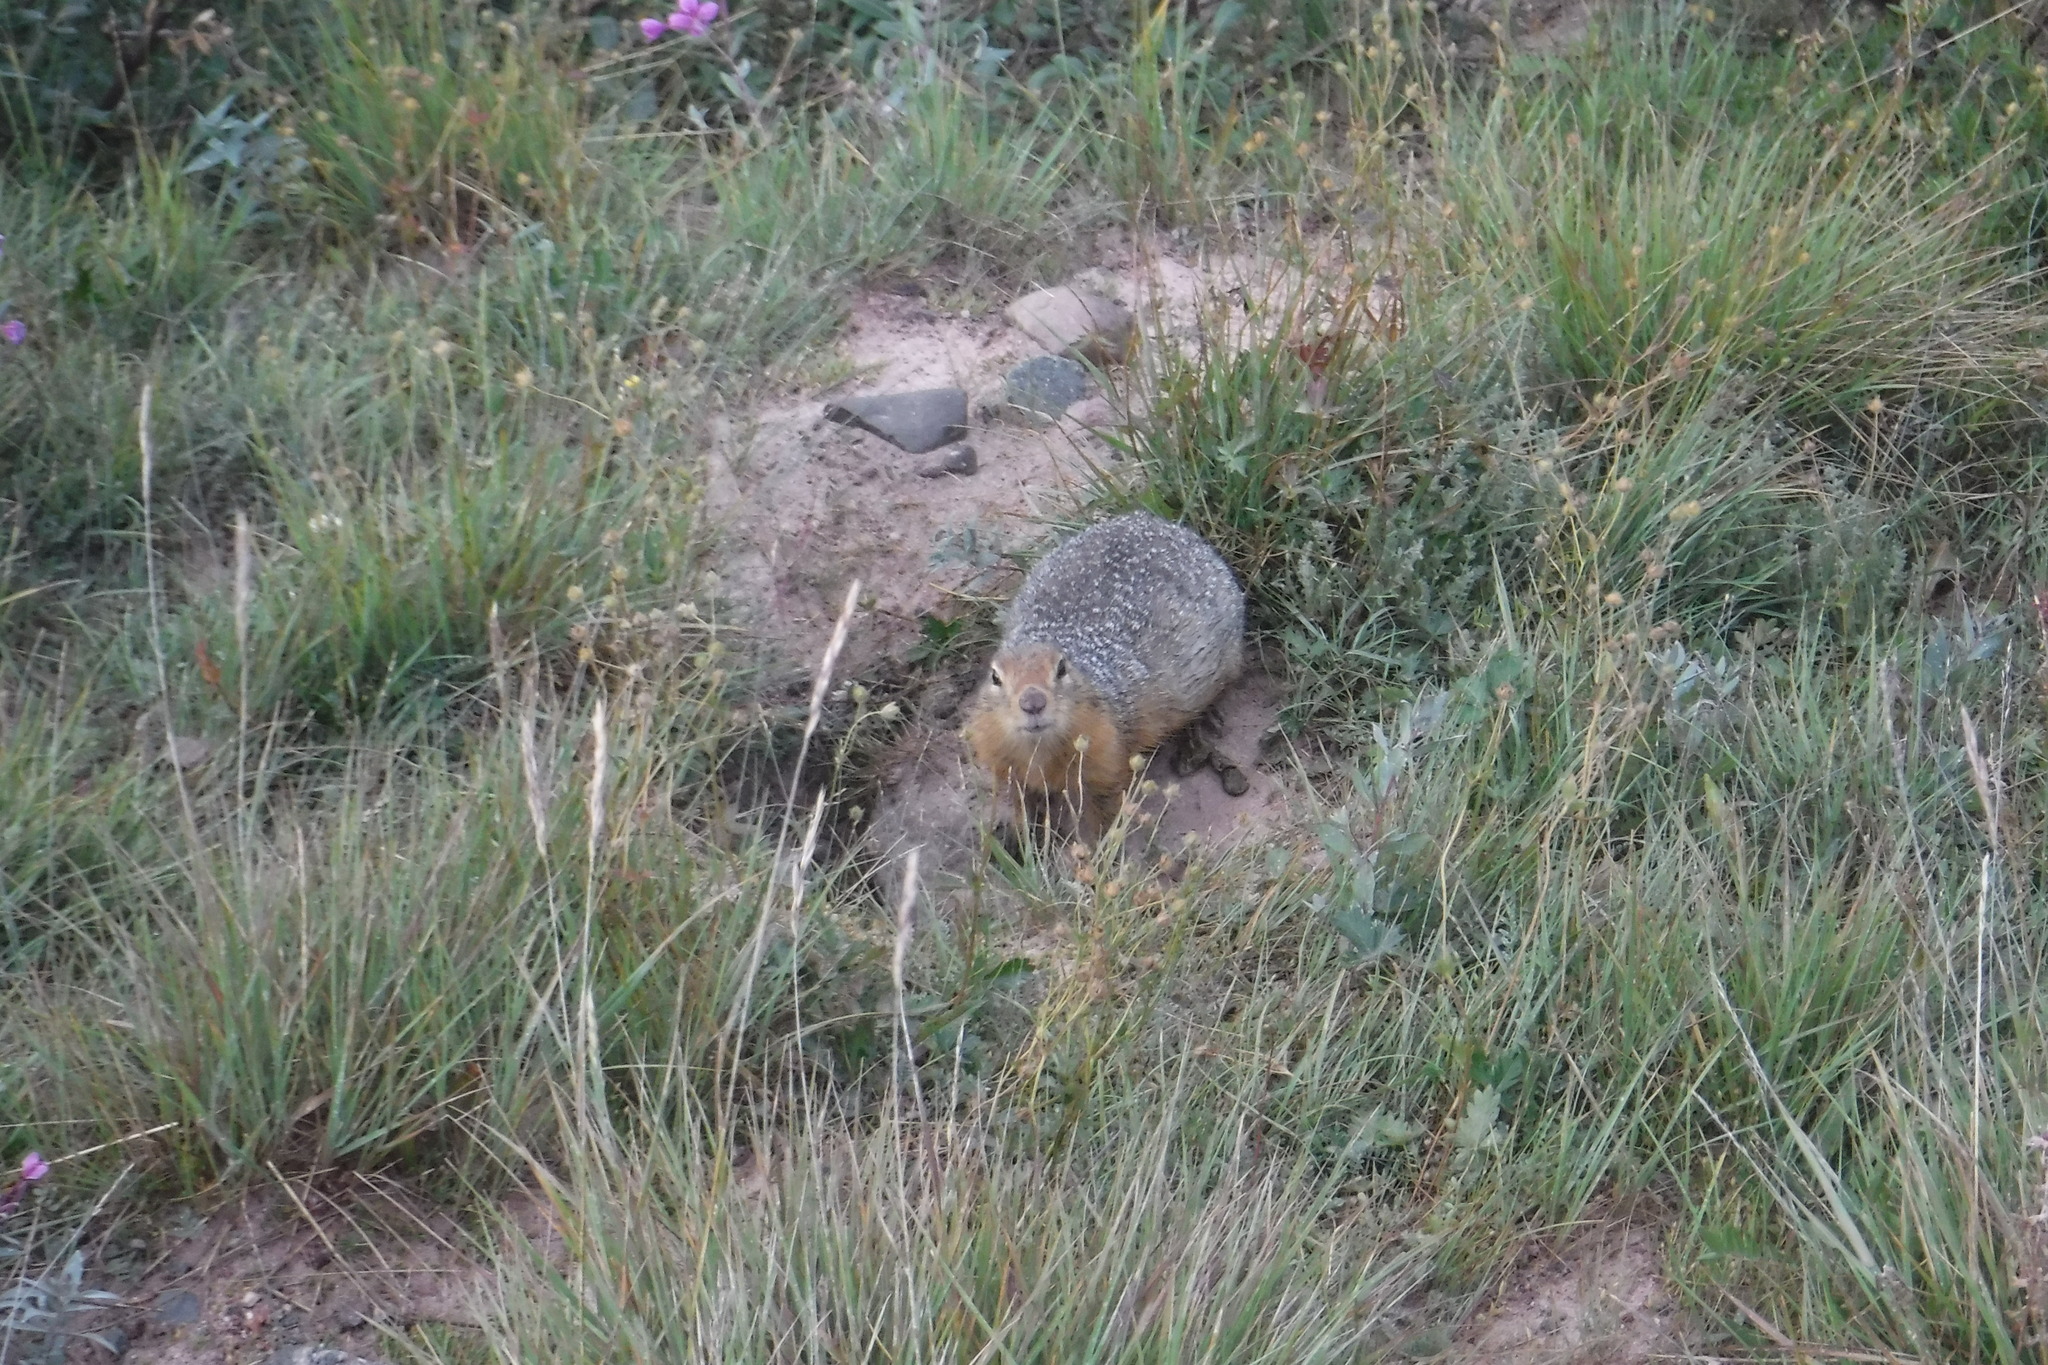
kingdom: Animalia
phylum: Chordata
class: Mammalia
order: Rodentia
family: Sciuridae
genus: Urocitellus
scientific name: Urocitellus parryii
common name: Arctic ground squirrel
